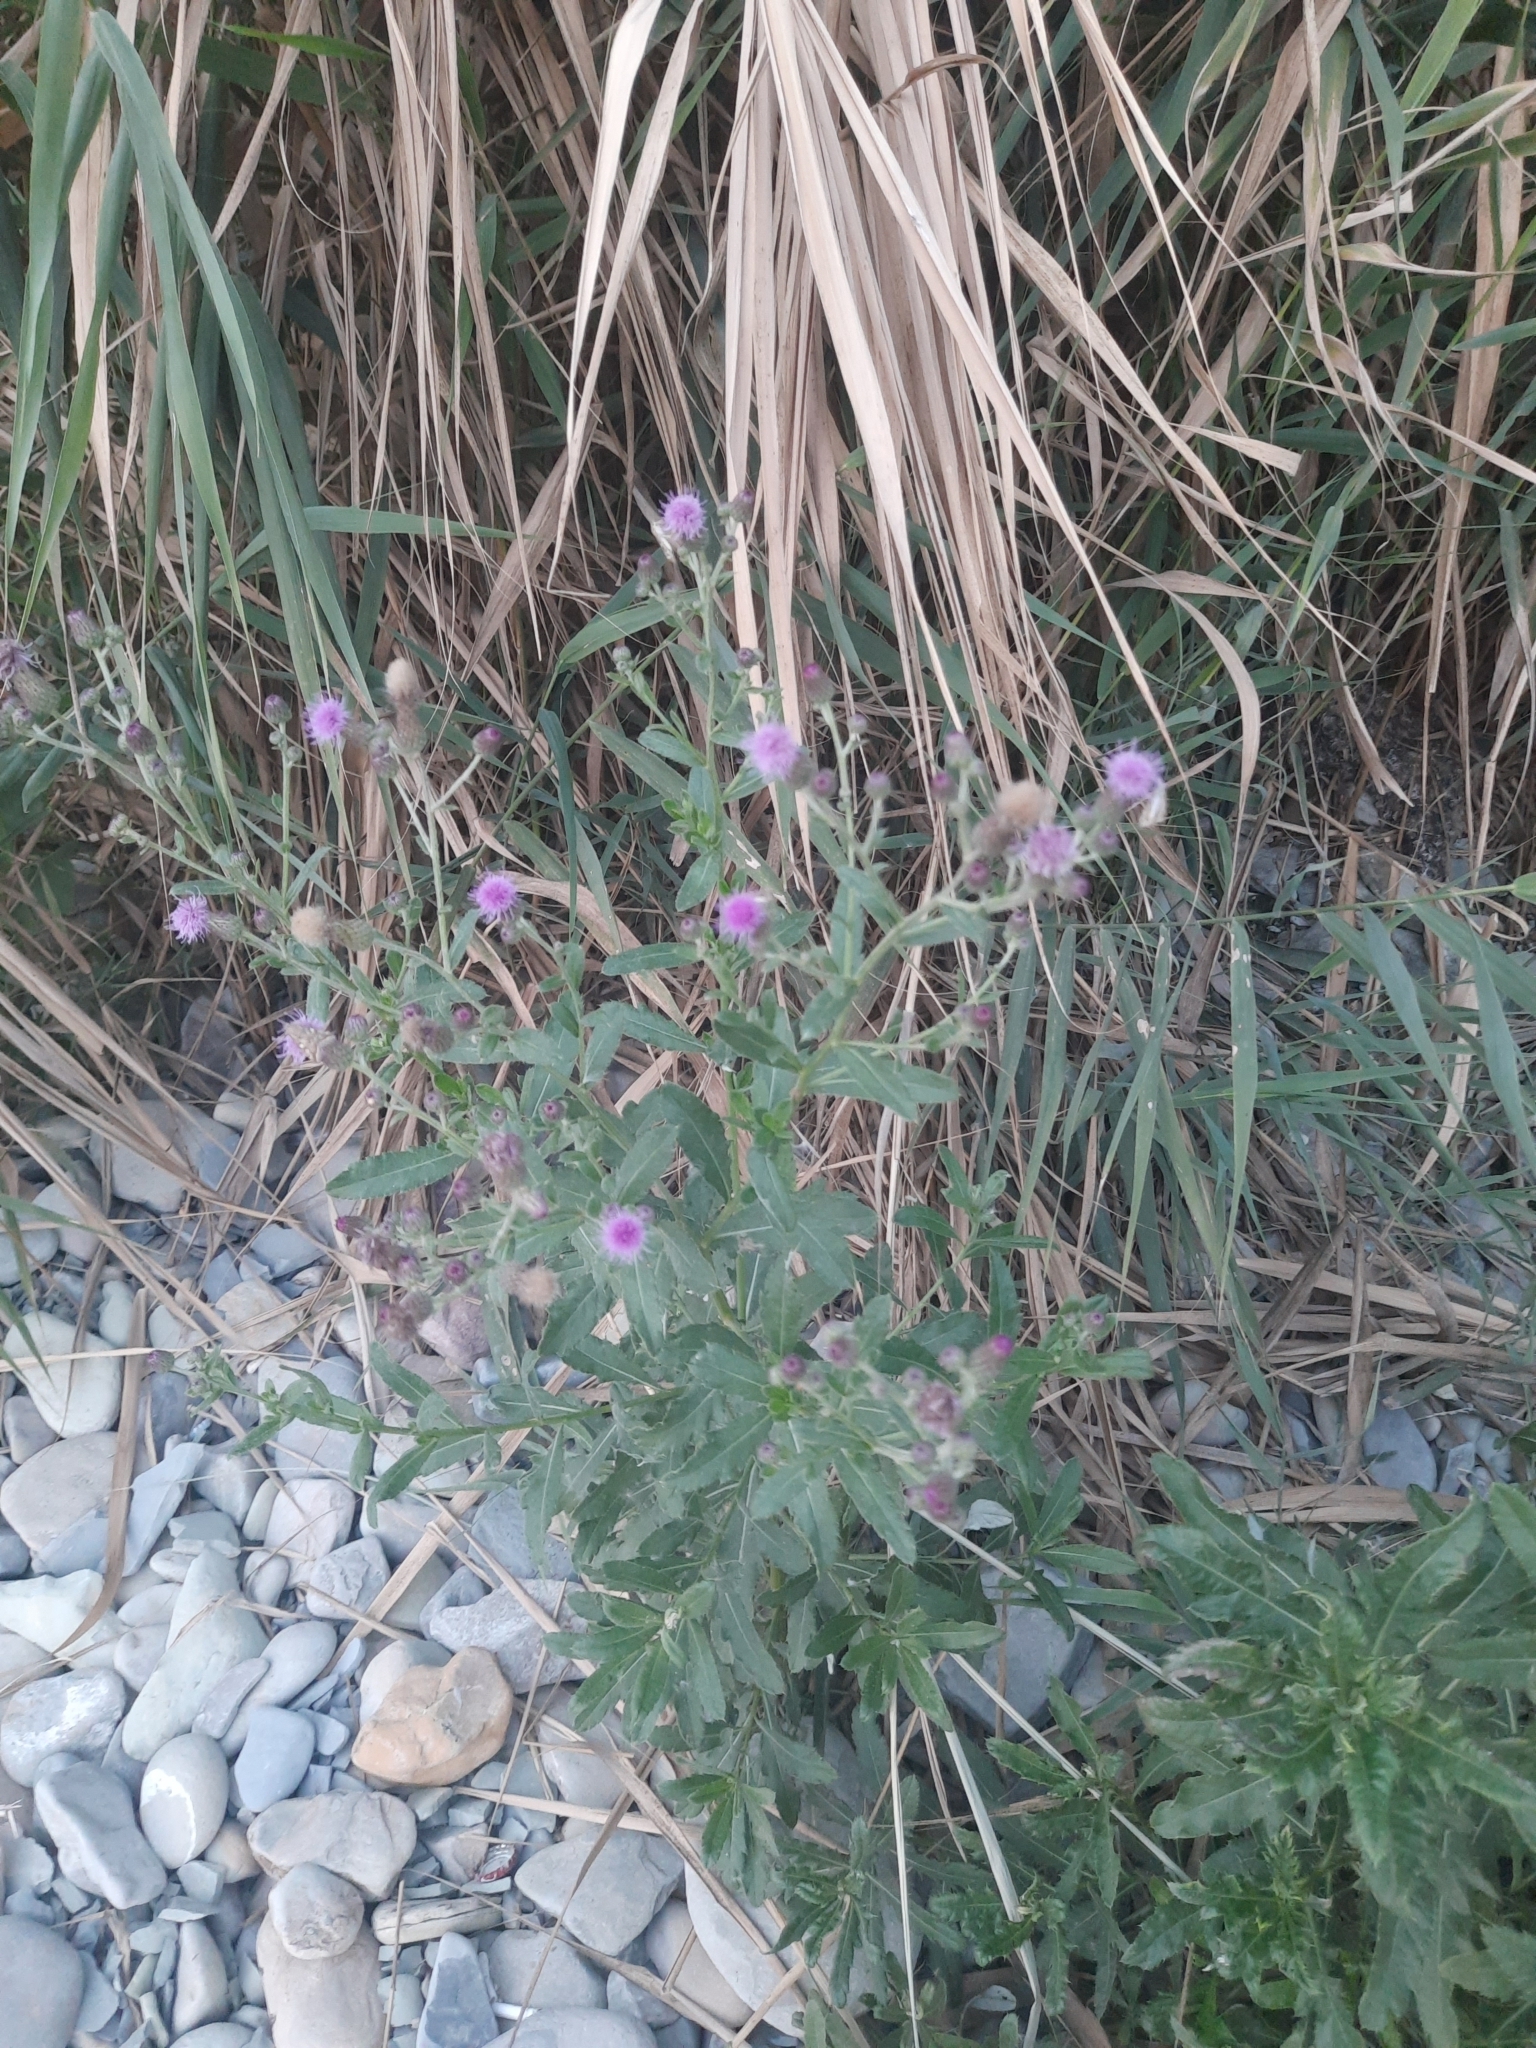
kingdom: Plantae
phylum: Tracheophyta
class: Magnoliopsida
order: Asterales
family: Asteraceae
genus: Cirsium
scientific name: Cirsium arvense
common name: Creeping thistle
